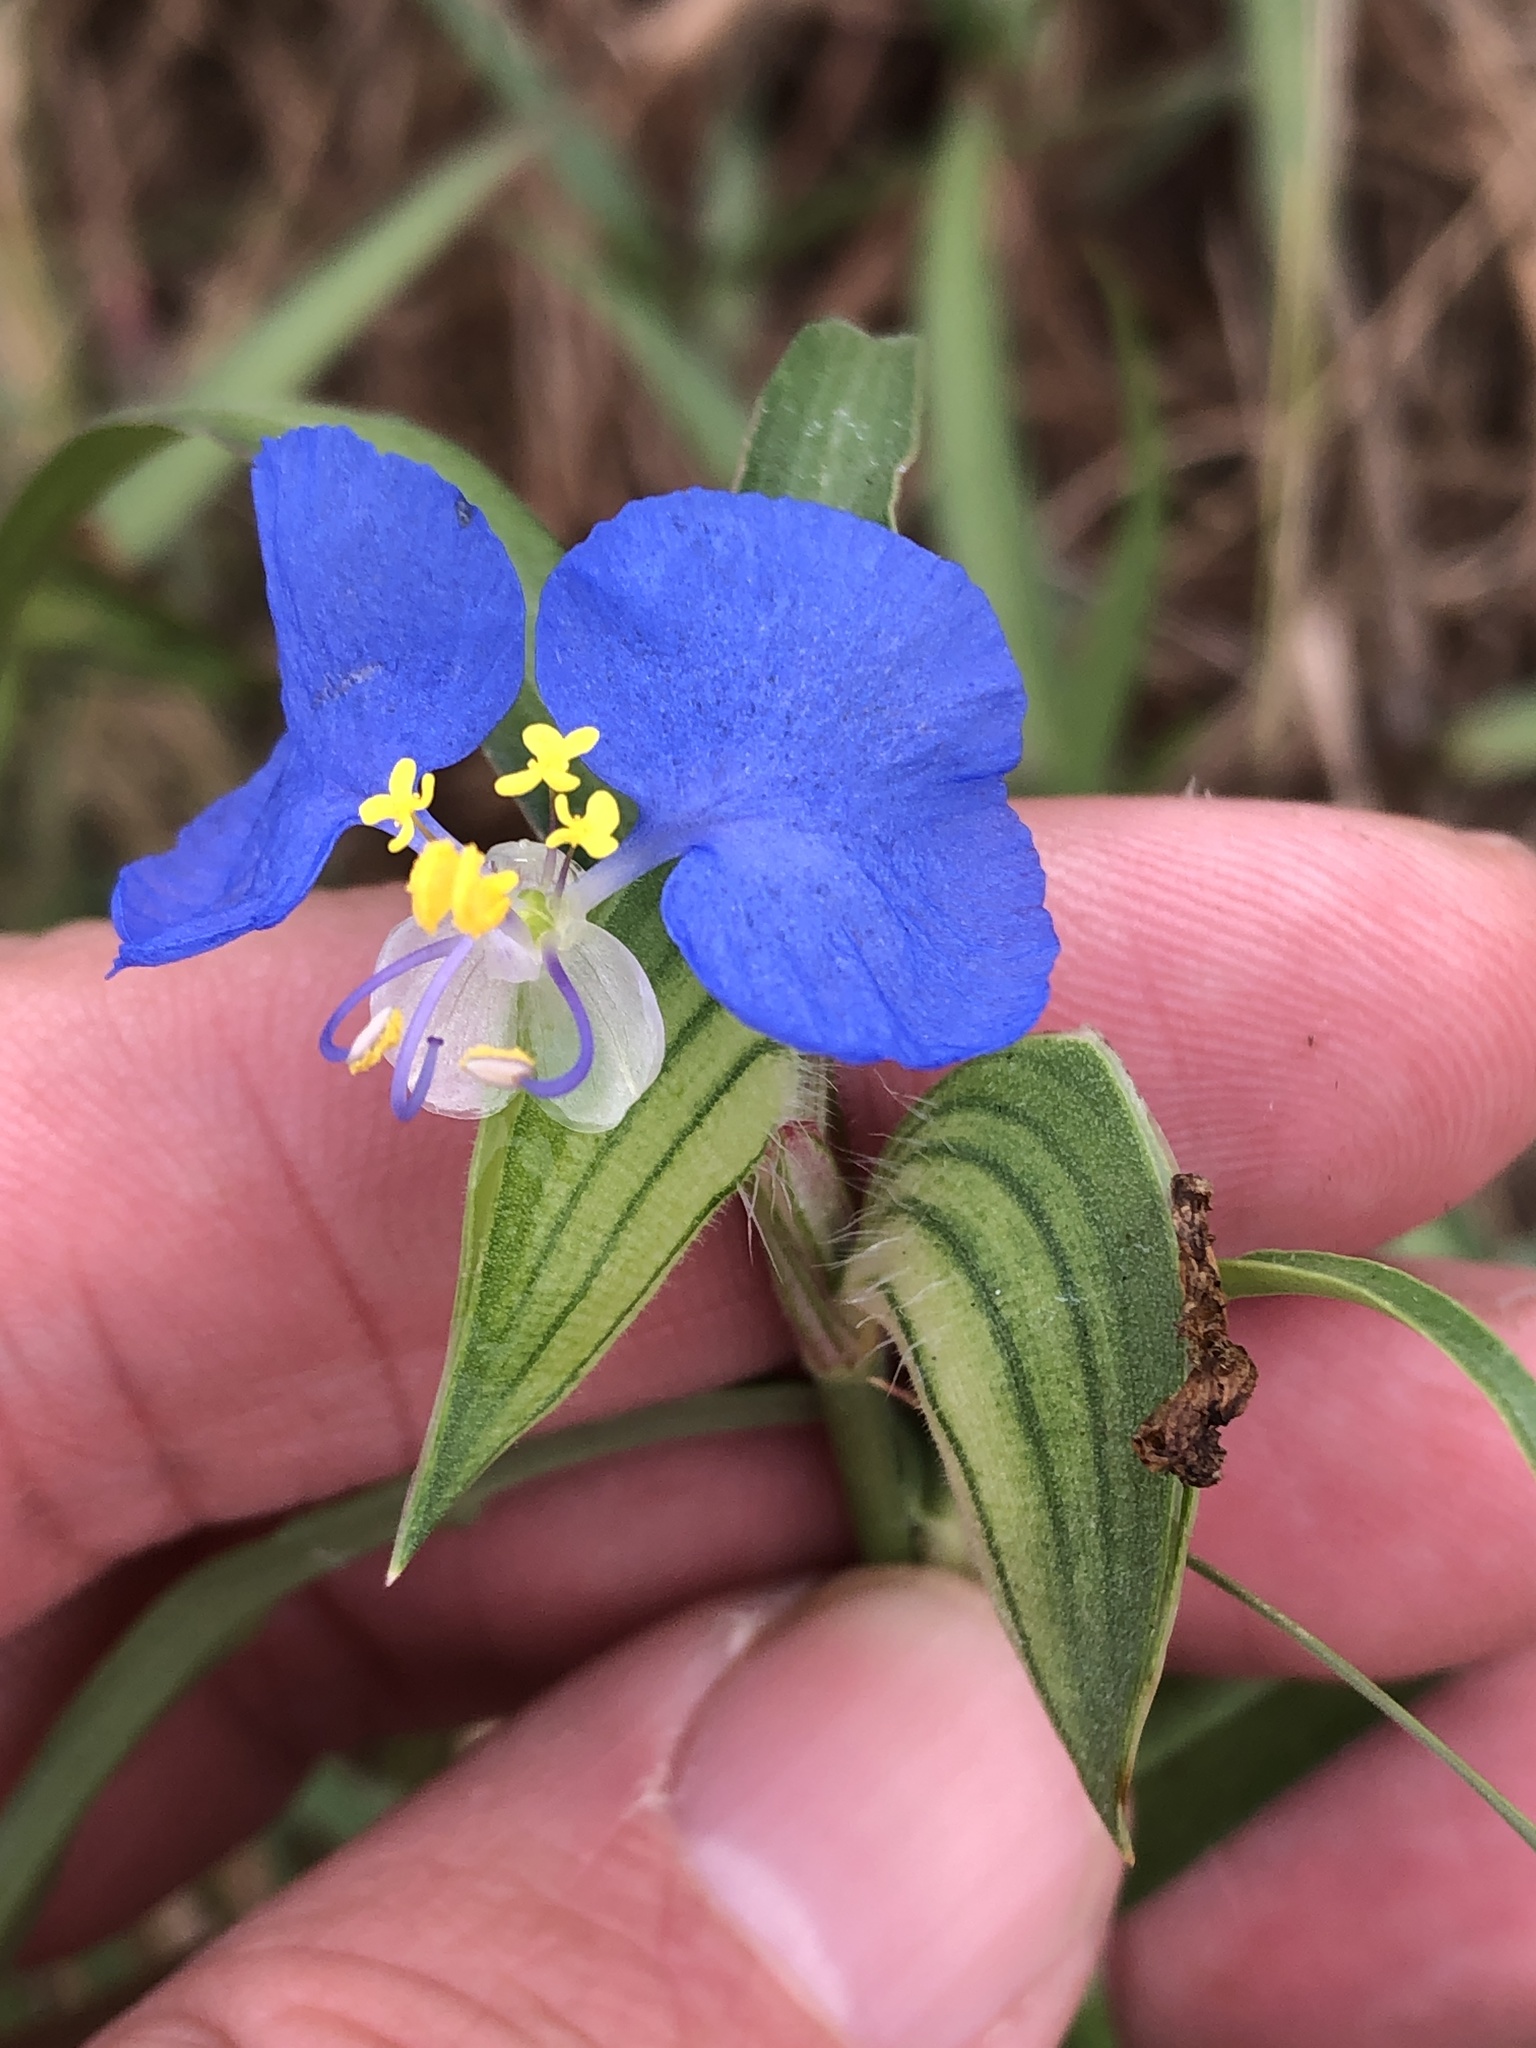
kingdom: Plantae
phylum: Tracheophyta
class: Liliopsida
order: Commelinales
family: Commelinaceae
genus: Commelina
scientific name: Commelina erecta
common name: Blousel blommetjie
